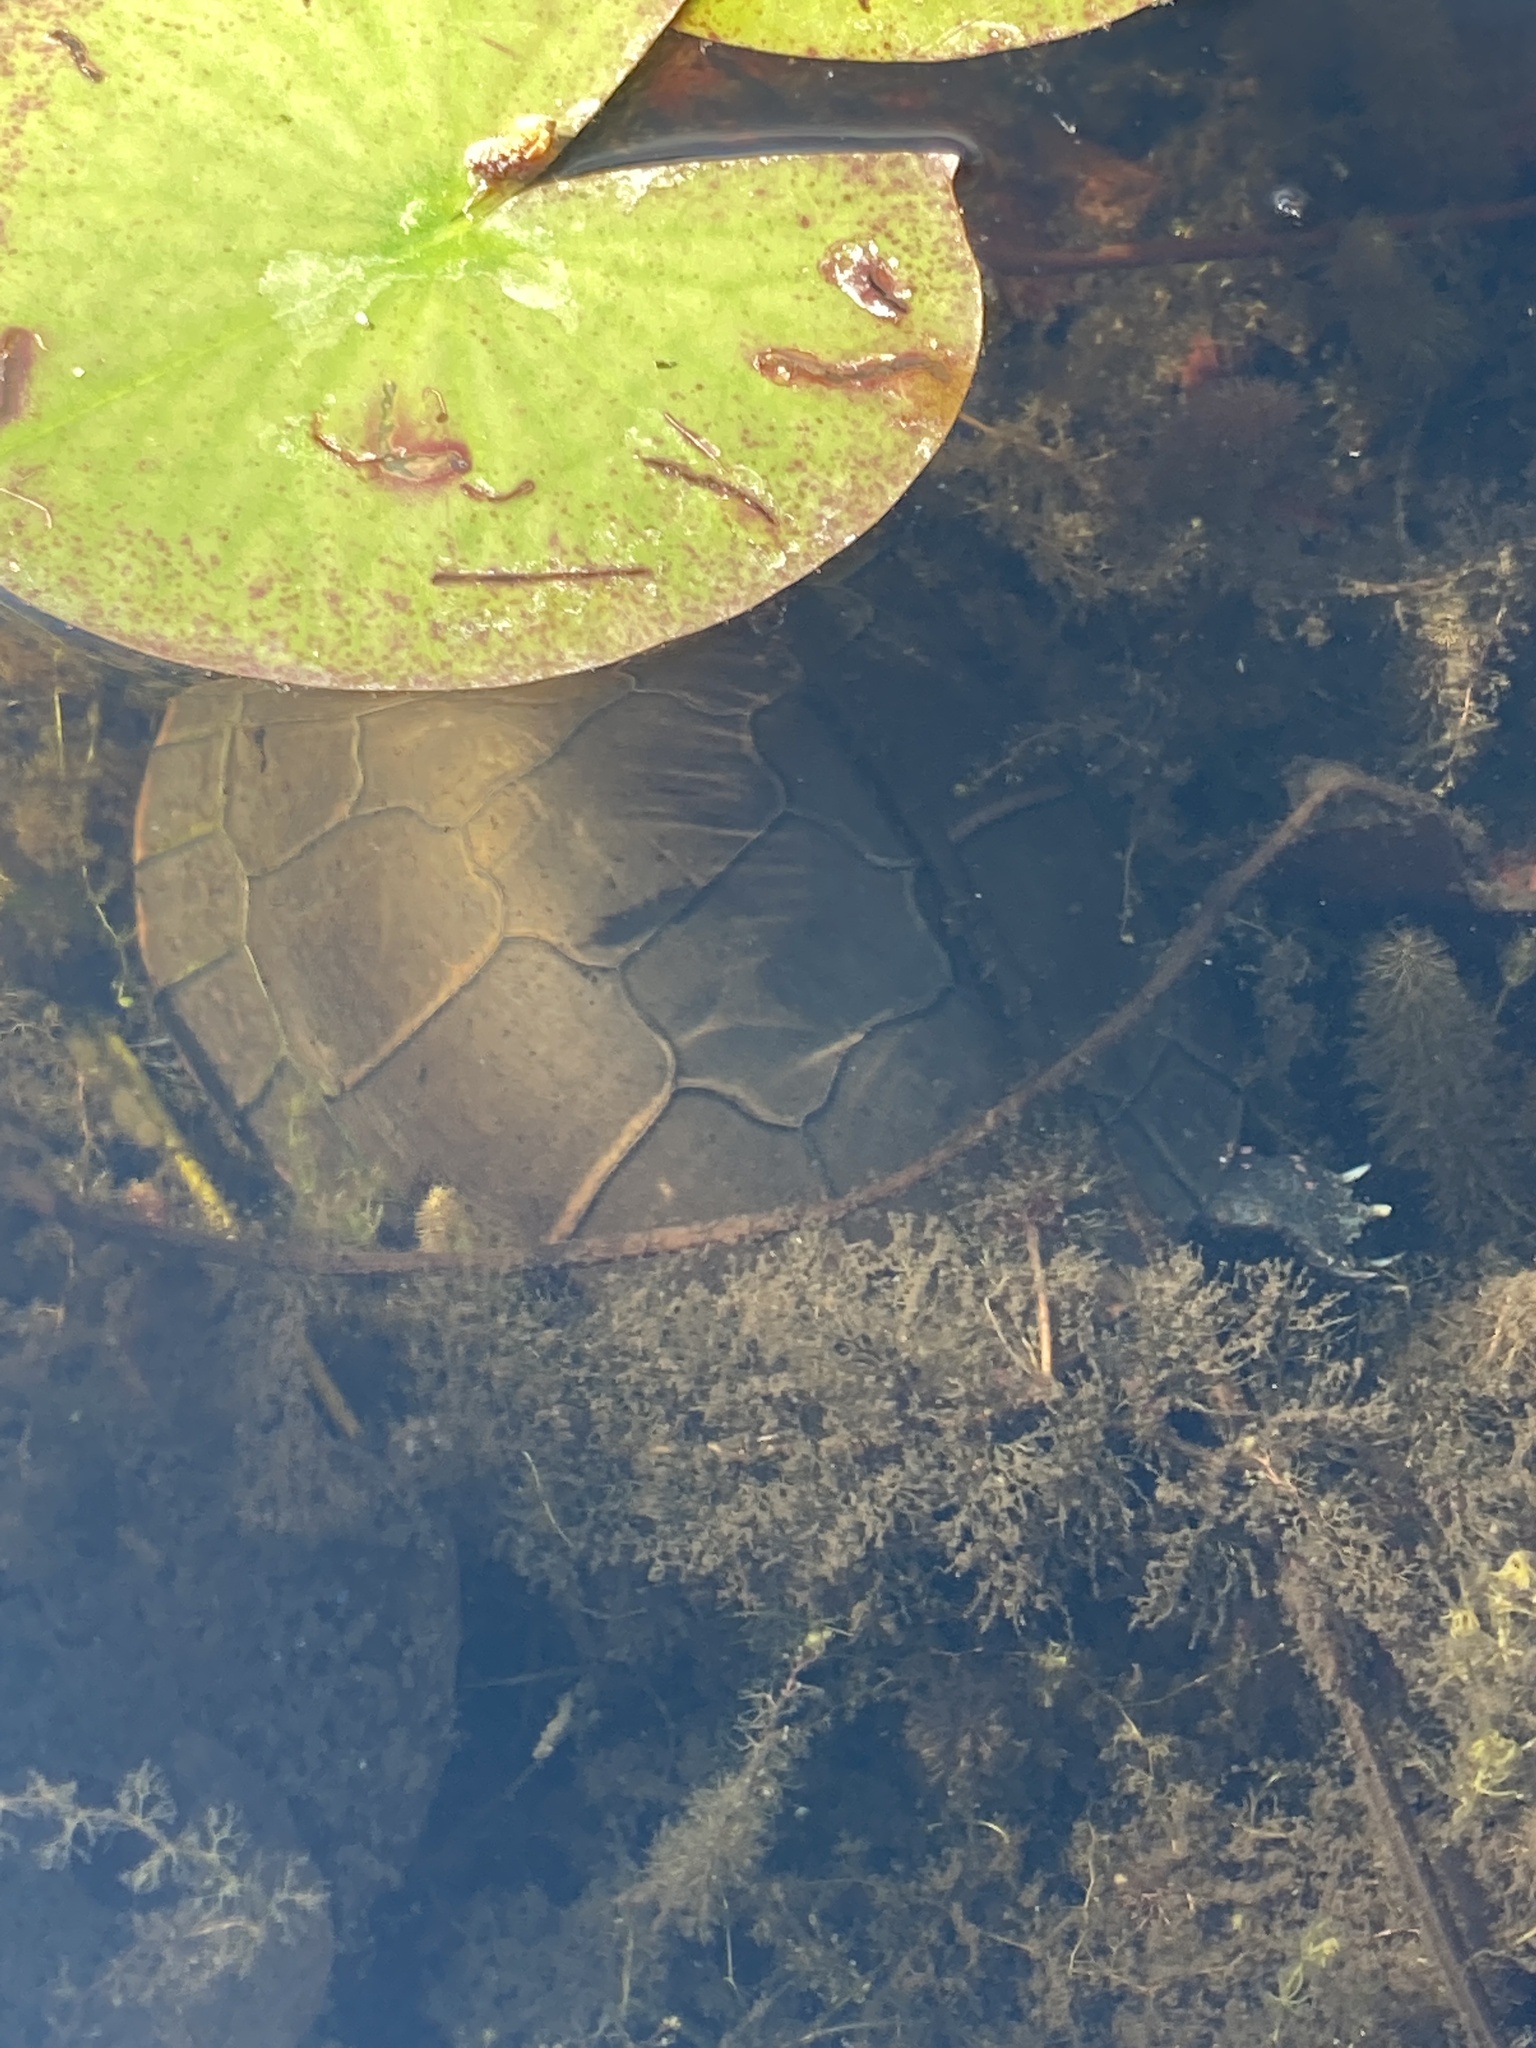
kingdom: Animalia
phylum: Chordata
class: Testudines
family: Emydidae
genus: Chrysemys
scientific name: Chrysemys picta
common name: Painted turtle
